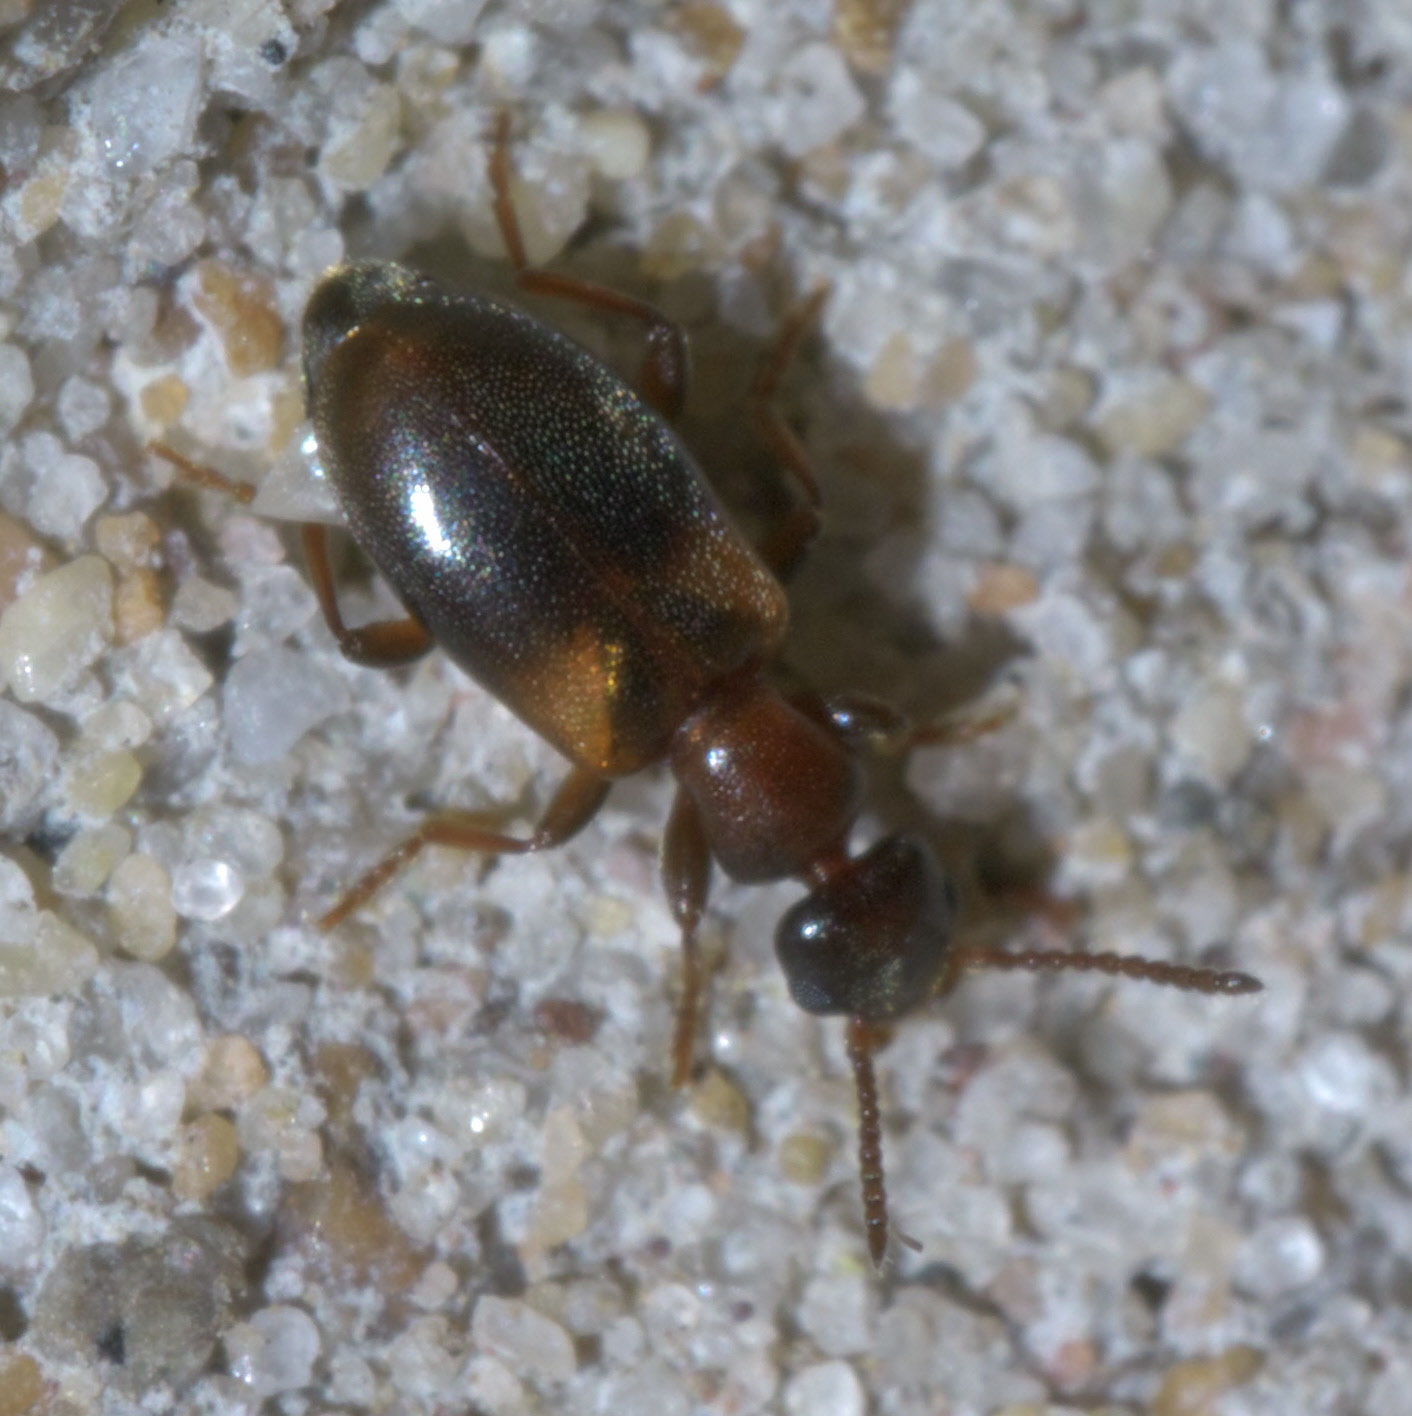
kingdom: Animalia
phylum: Arthropoda
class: Insecta
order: Coleoptera
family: Anthicidae
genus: Omonadus
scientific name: Omonadus formicarius
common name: Antlike flower beetle
